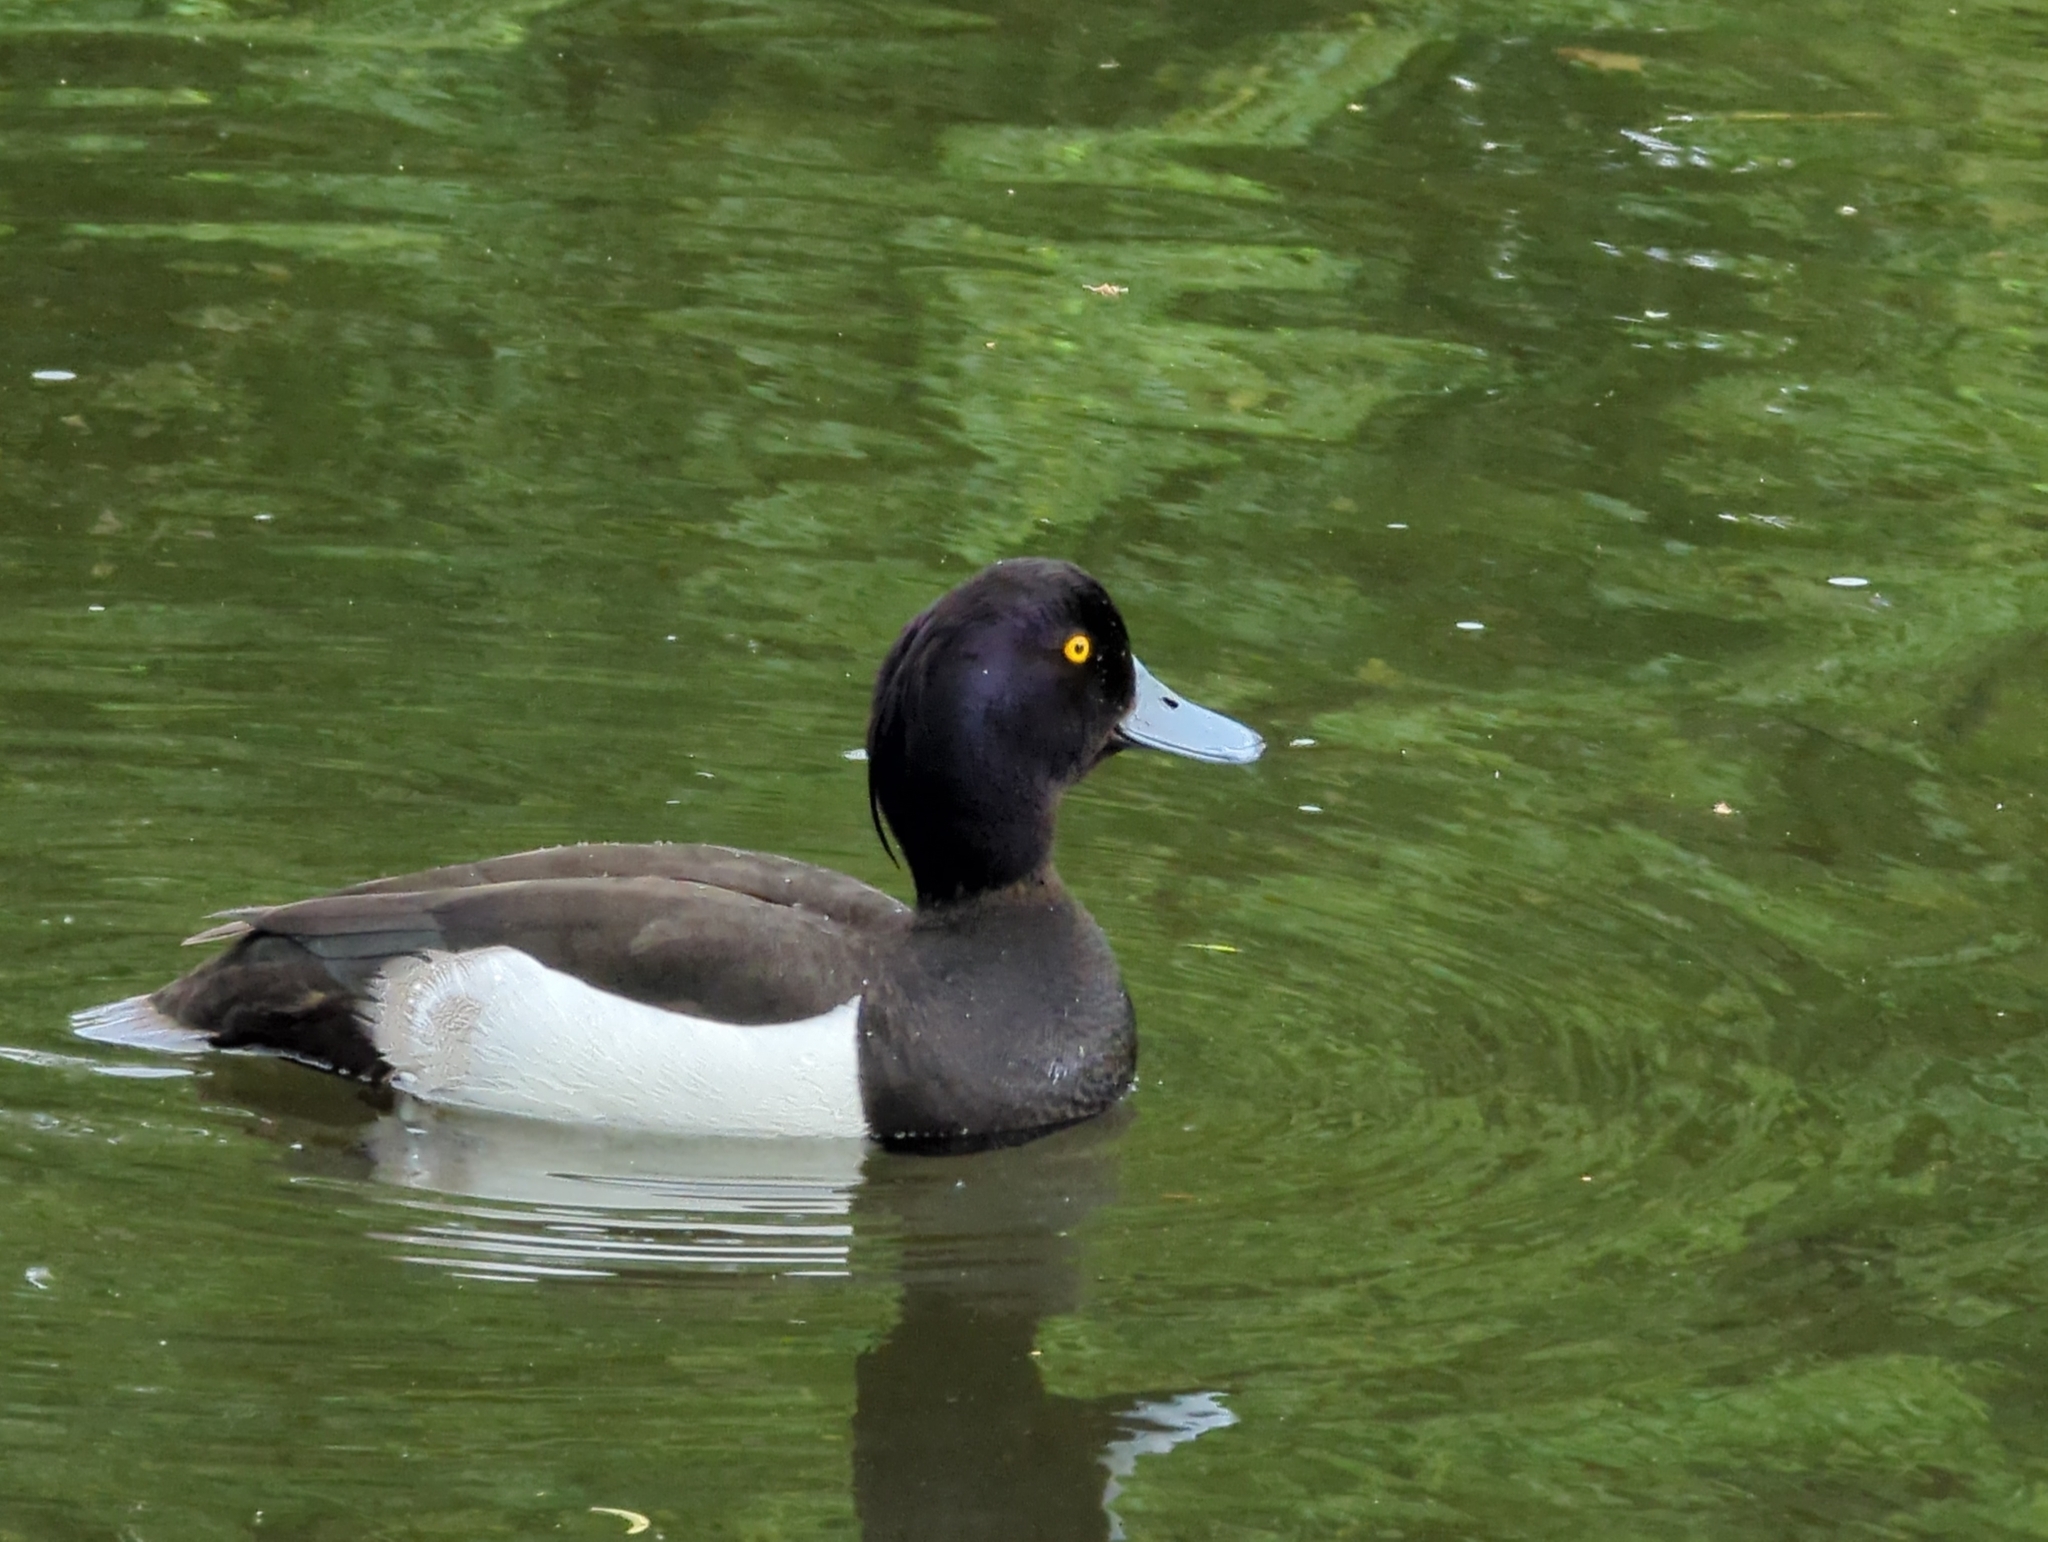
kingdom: Animalia
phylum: Chordata
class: Aves
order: Anseriformes
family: Anatidae
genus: Aythya
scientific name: Aythya fuligula
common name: Tufted duck
